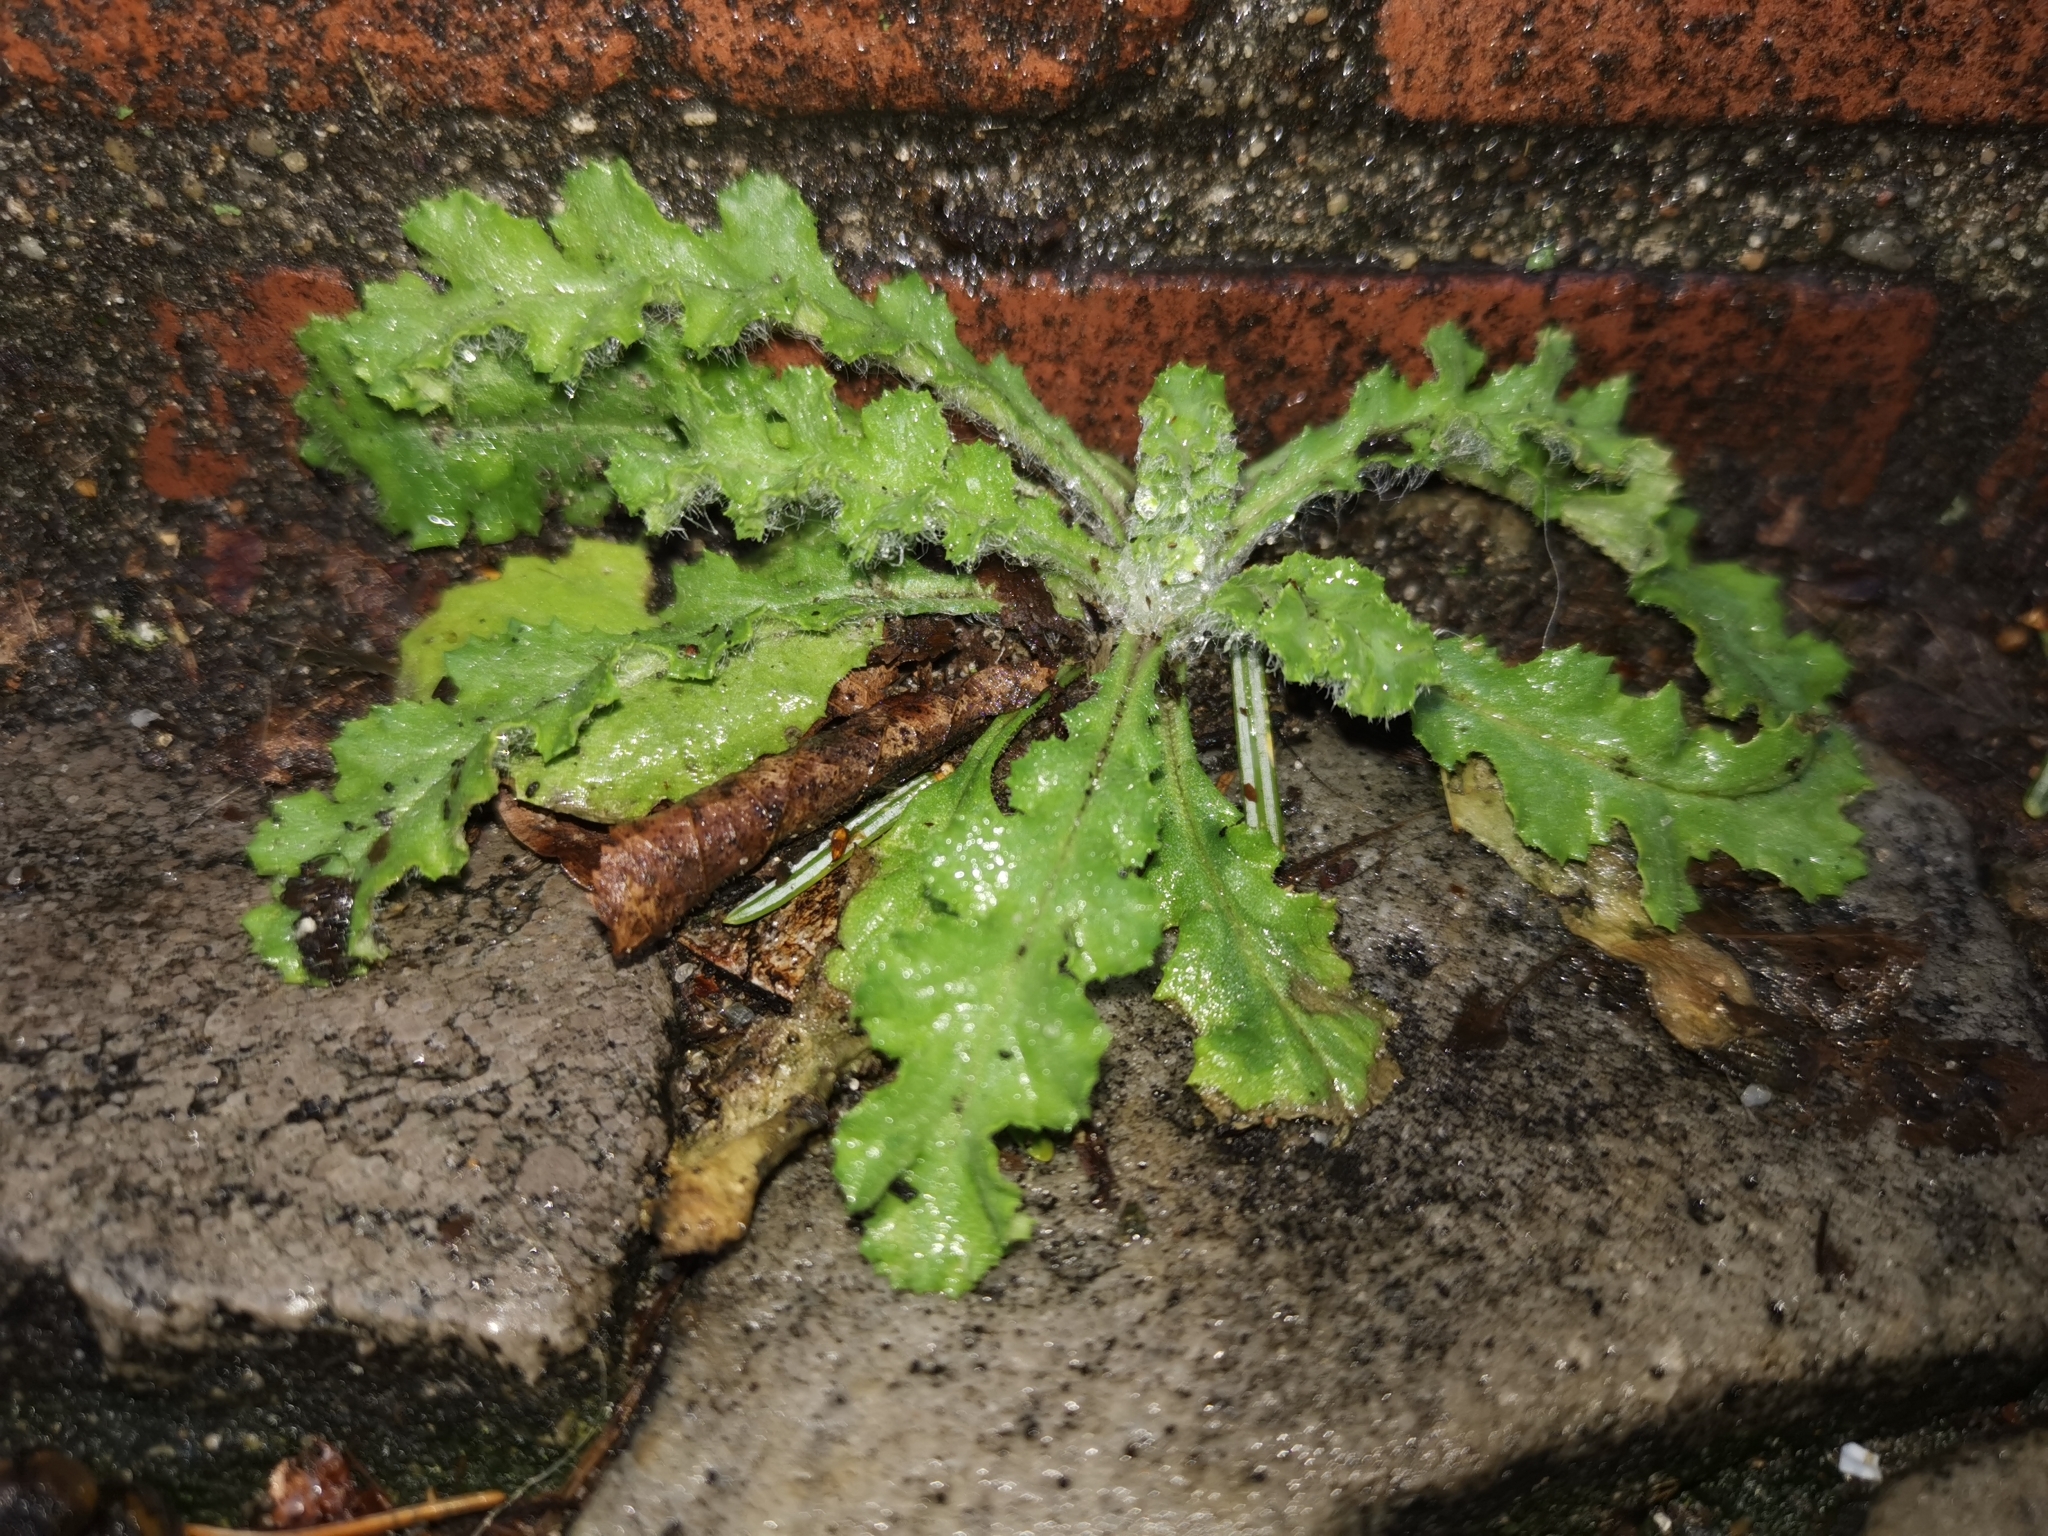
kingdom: Plantae
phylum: Tracheophyta
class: Magnoliopsida
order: Asterales
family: Asteraceae
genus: Senecio
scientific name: Senecio vulgaris
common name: Old-man-in-the-spring
